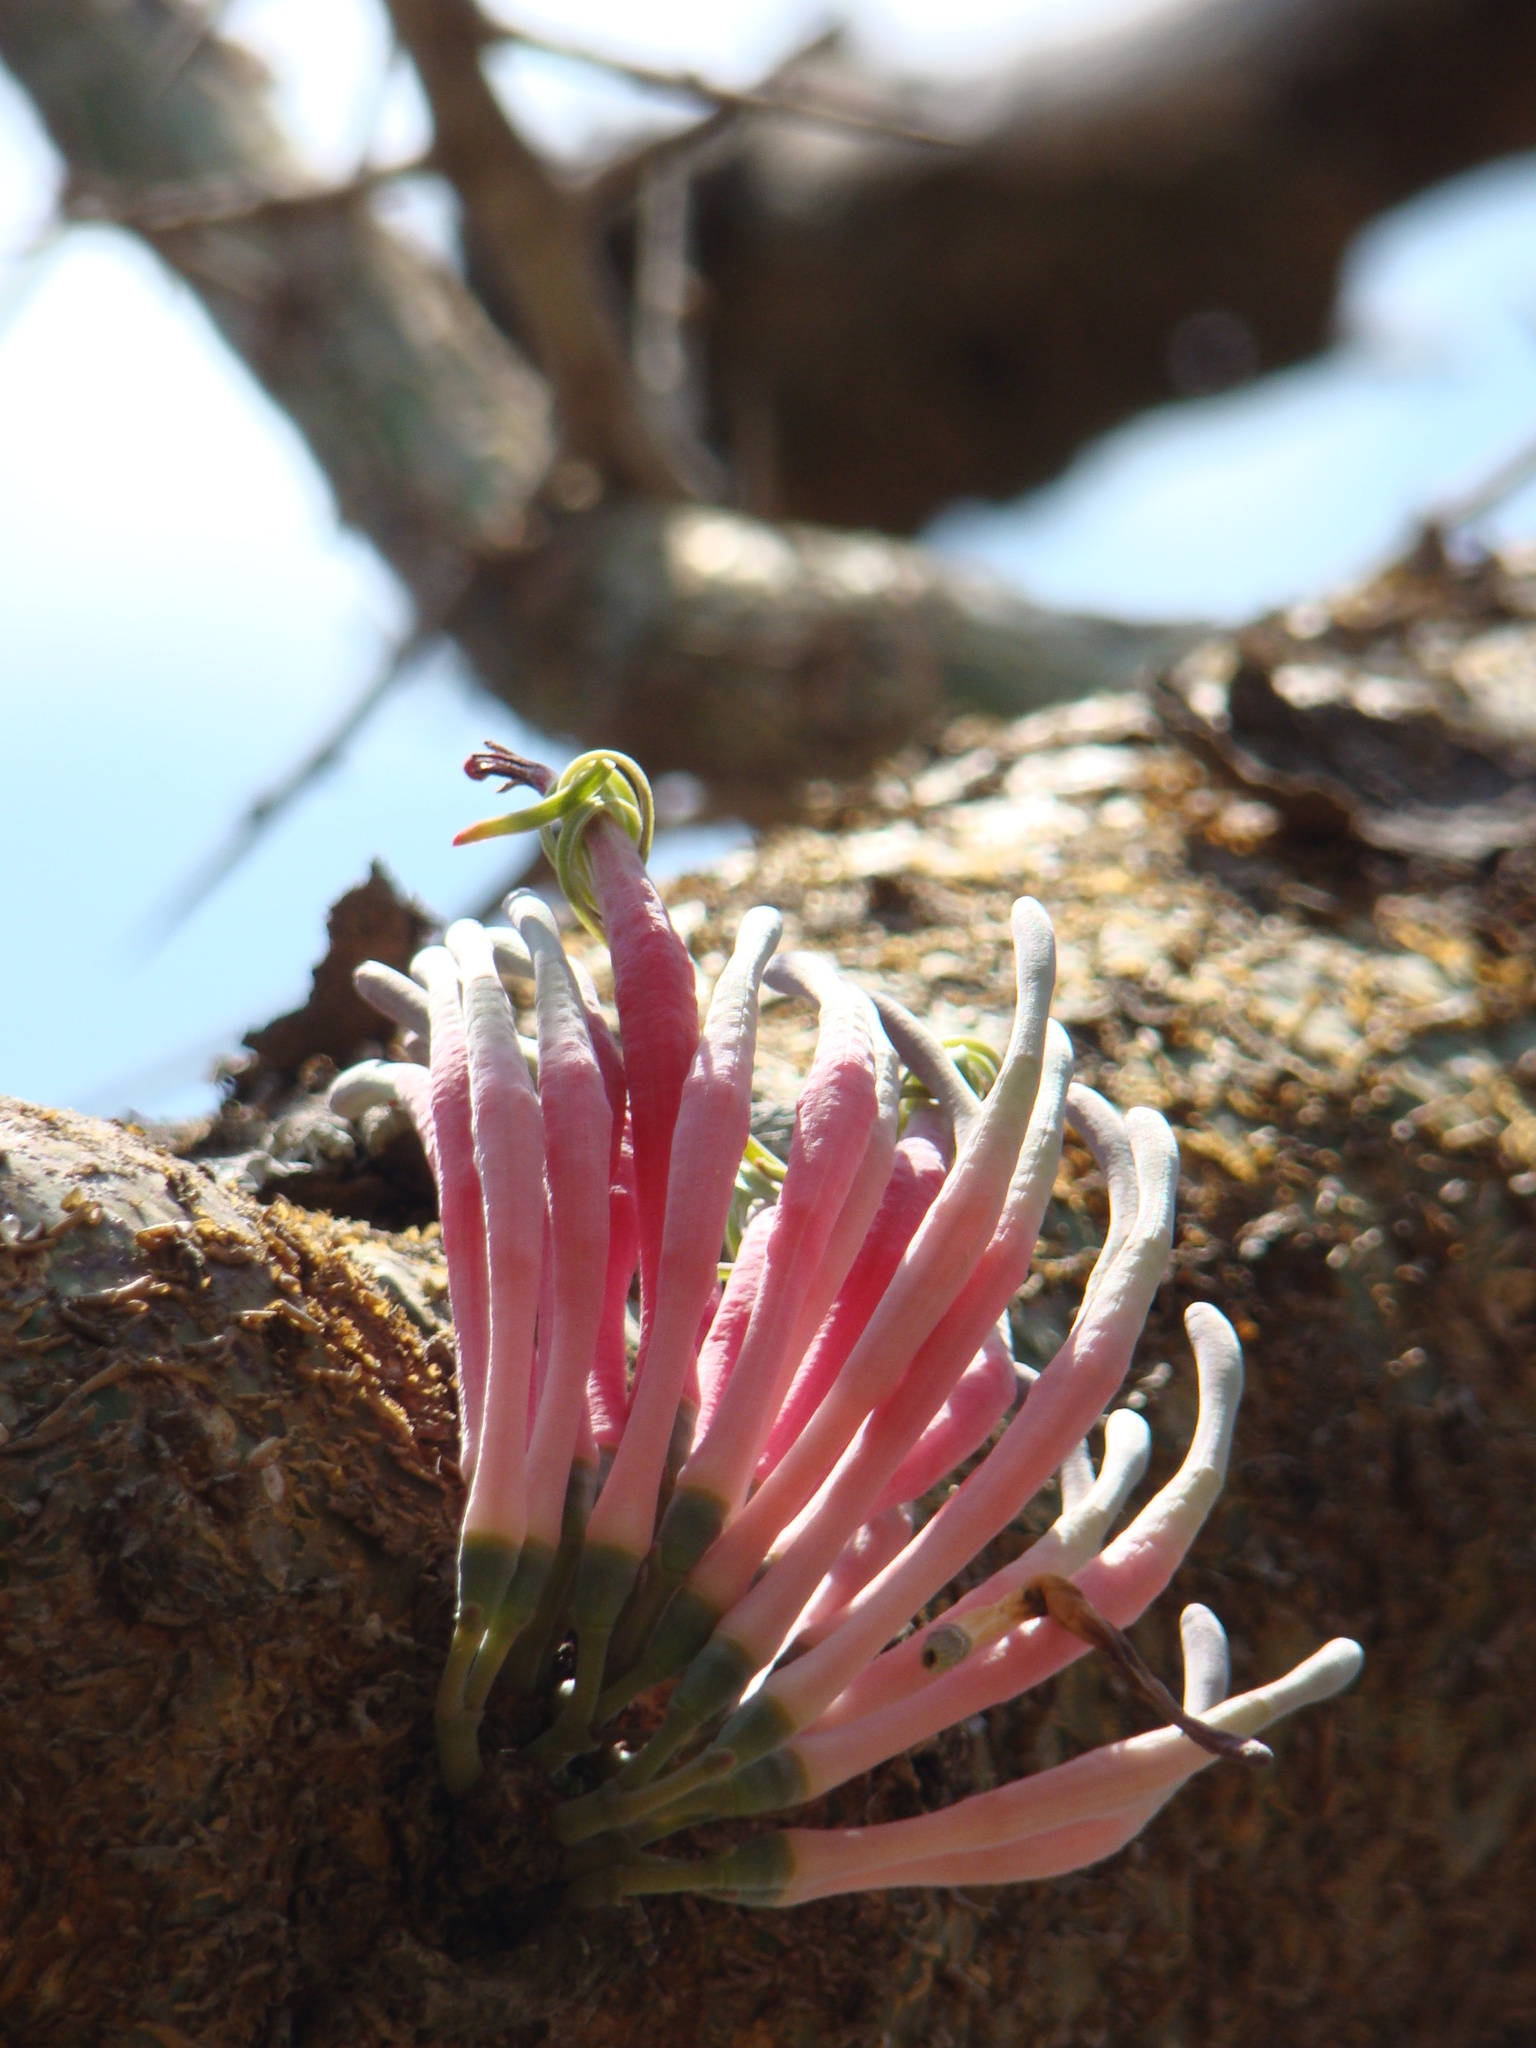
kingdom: Plantae
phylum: Tracheophyta
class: Magnoliopsida
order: Santalales
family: Loranthaceae
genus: Plicosepalus
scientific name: Plicosepalus meridianus
